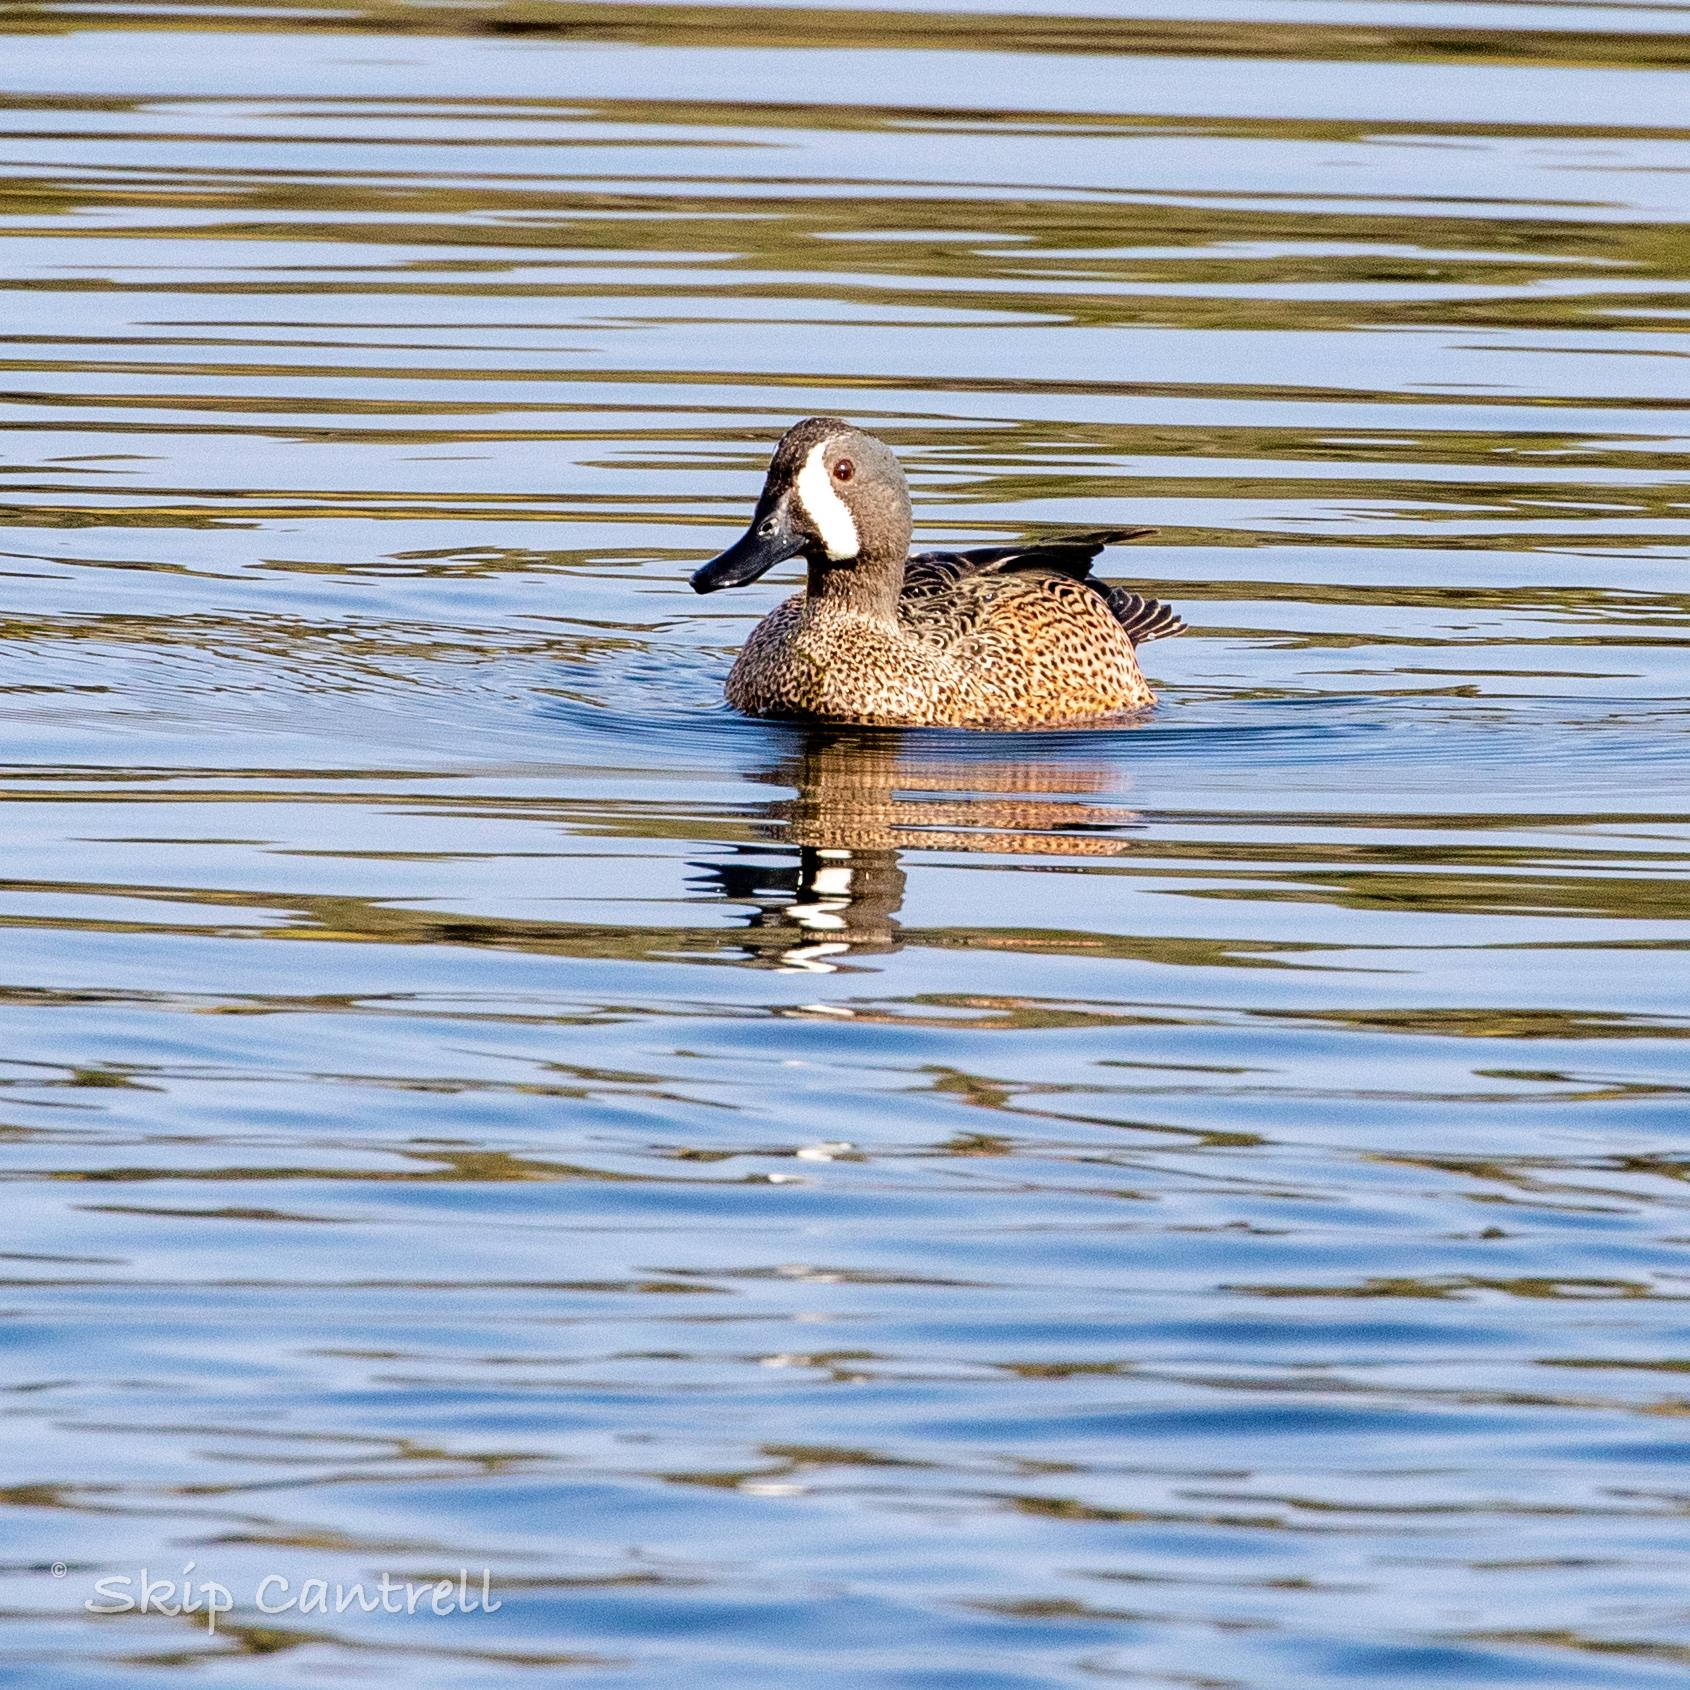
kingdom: Animalia
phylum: Chordata
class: Aves
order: Anseriformes
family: Anatidae
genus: Spatula
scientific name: Spatula discors
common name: Blue-winged teal
